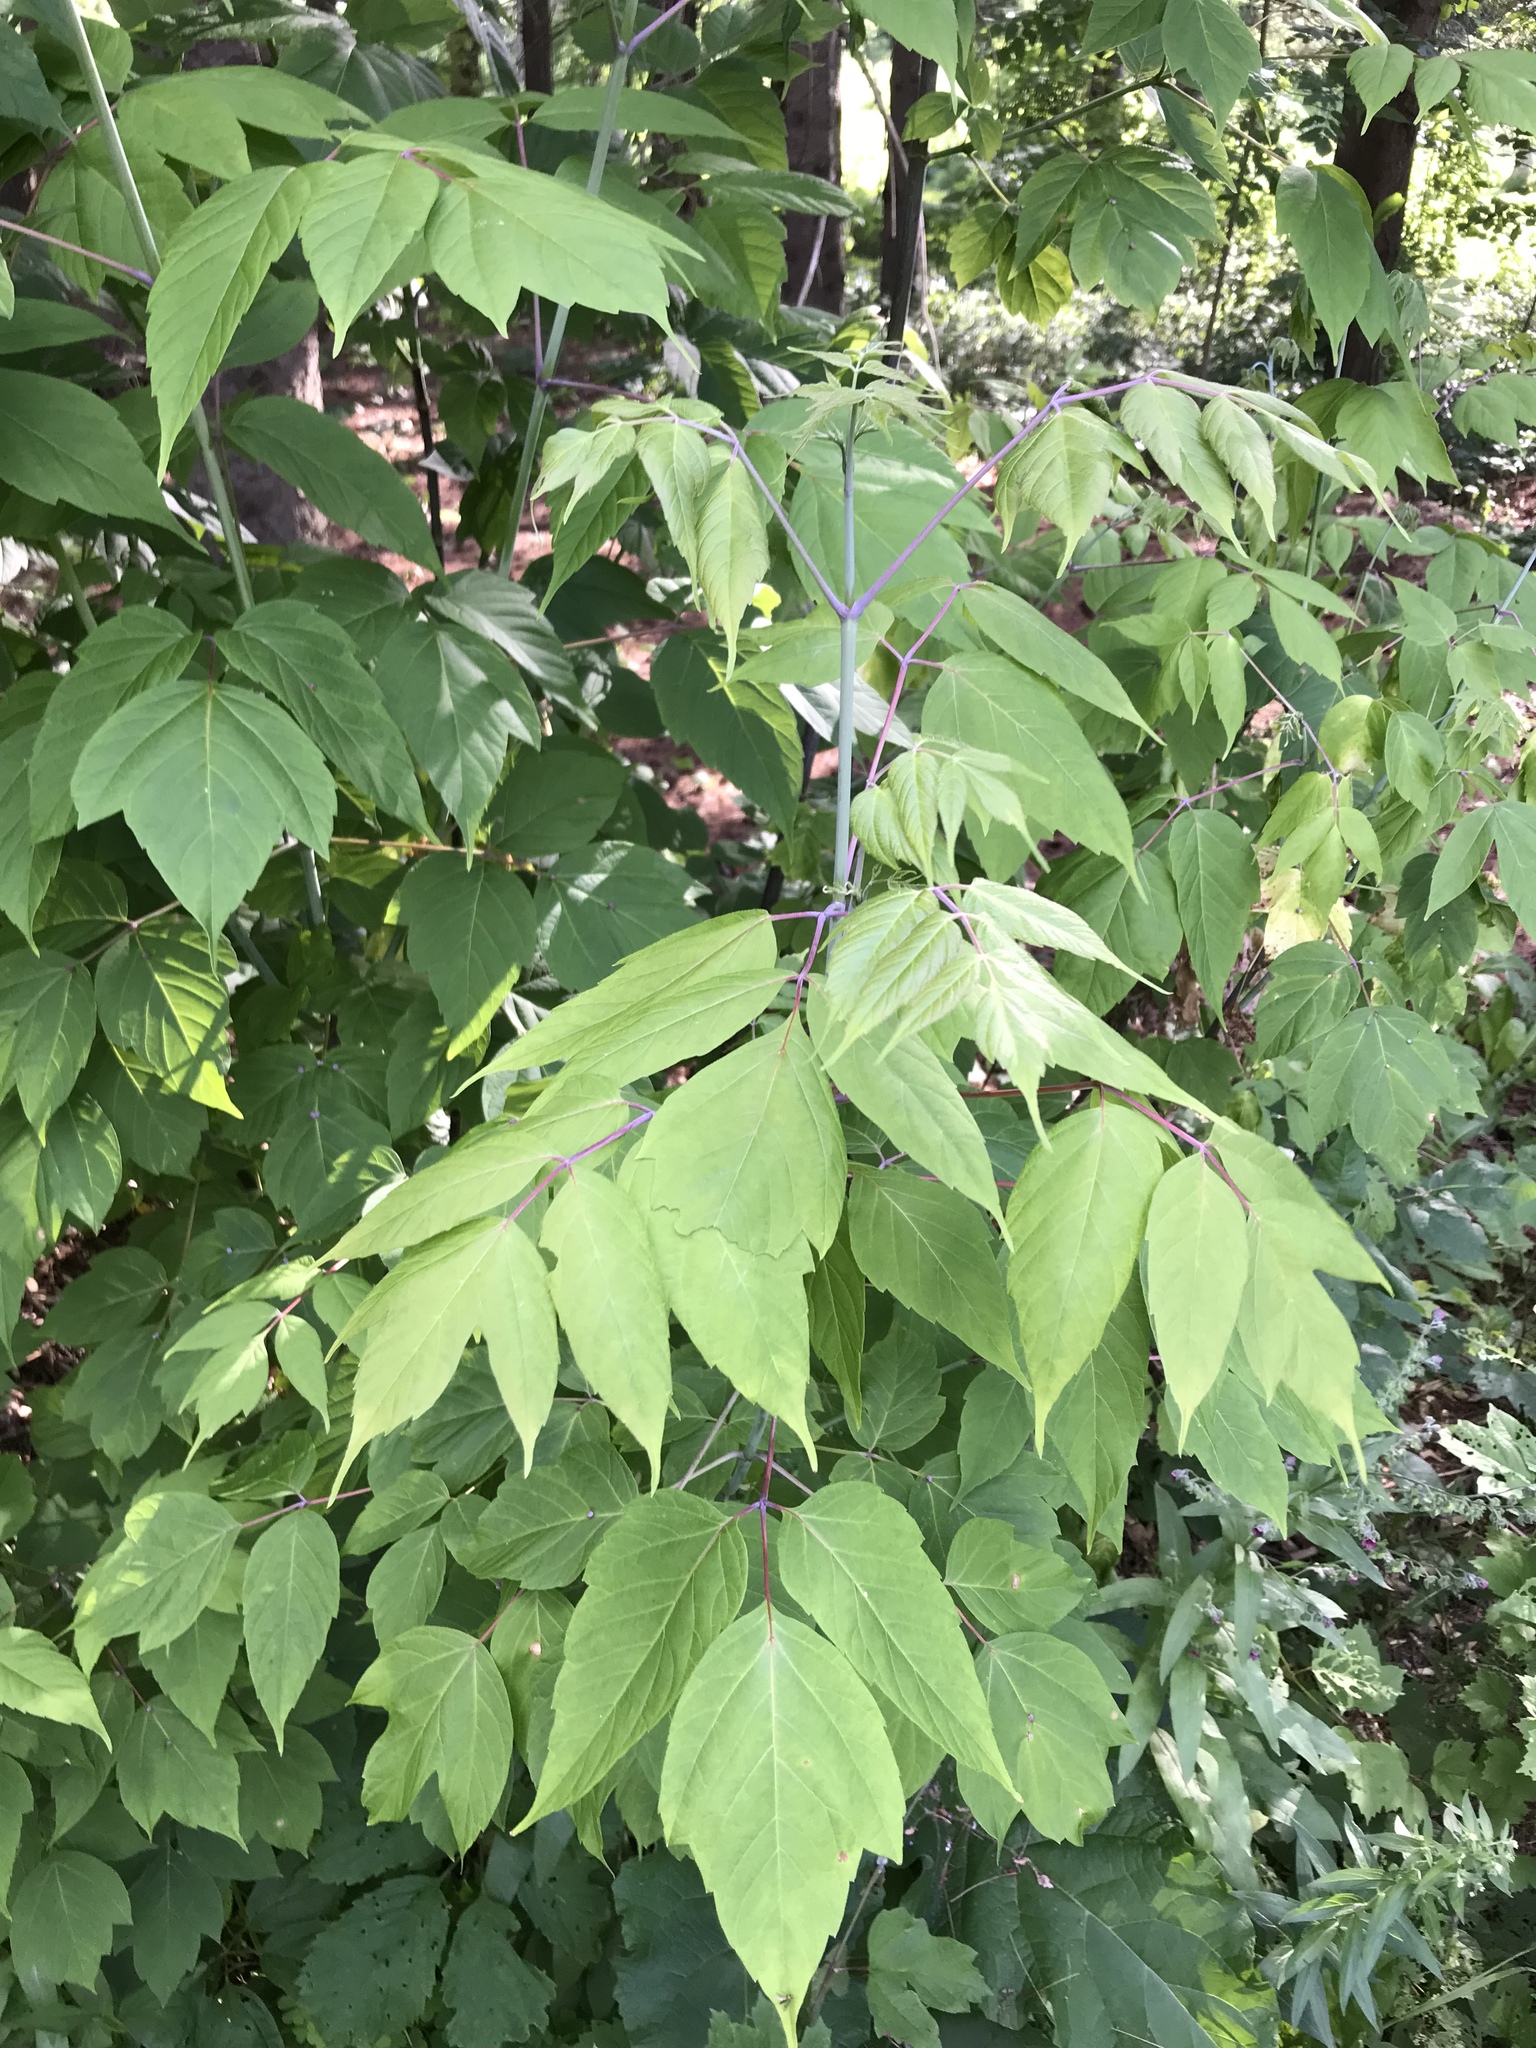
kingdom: Plantae
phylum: Tracheophyta
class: Magnoliopsida
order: Sapindales
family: Sapindaceae
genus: Acer
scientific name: Acer negundo
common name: Ashleaf maple
